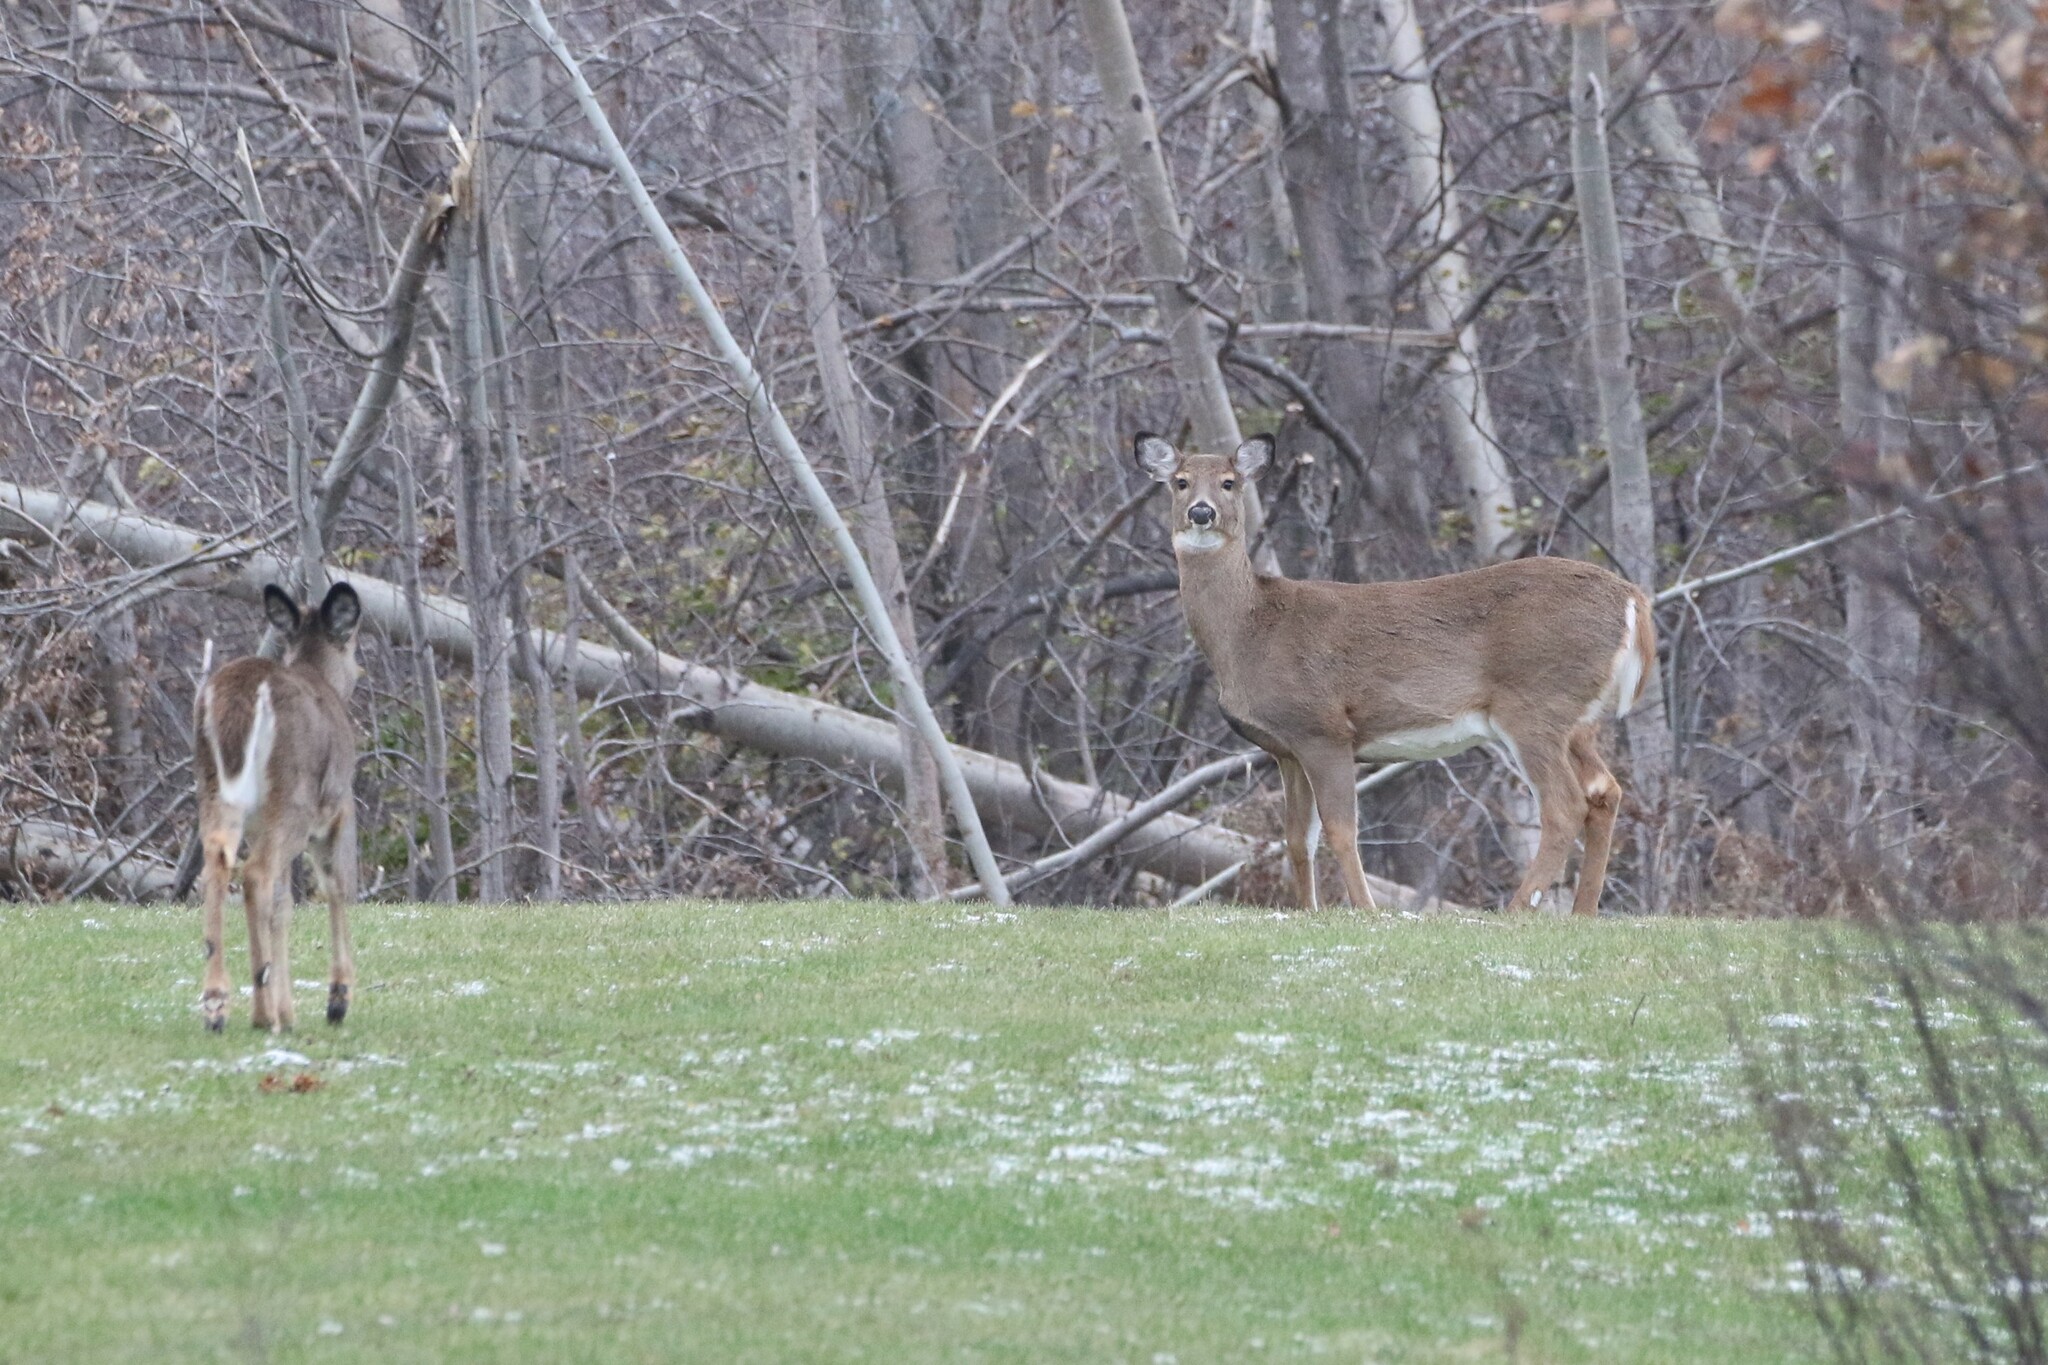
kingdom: Animalia
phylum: Chordata
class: Mammalia
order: Artiodactyla
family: Cervidae
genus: Odocoileus
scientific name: Odocoileus virginianus
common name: White-tailed deer
